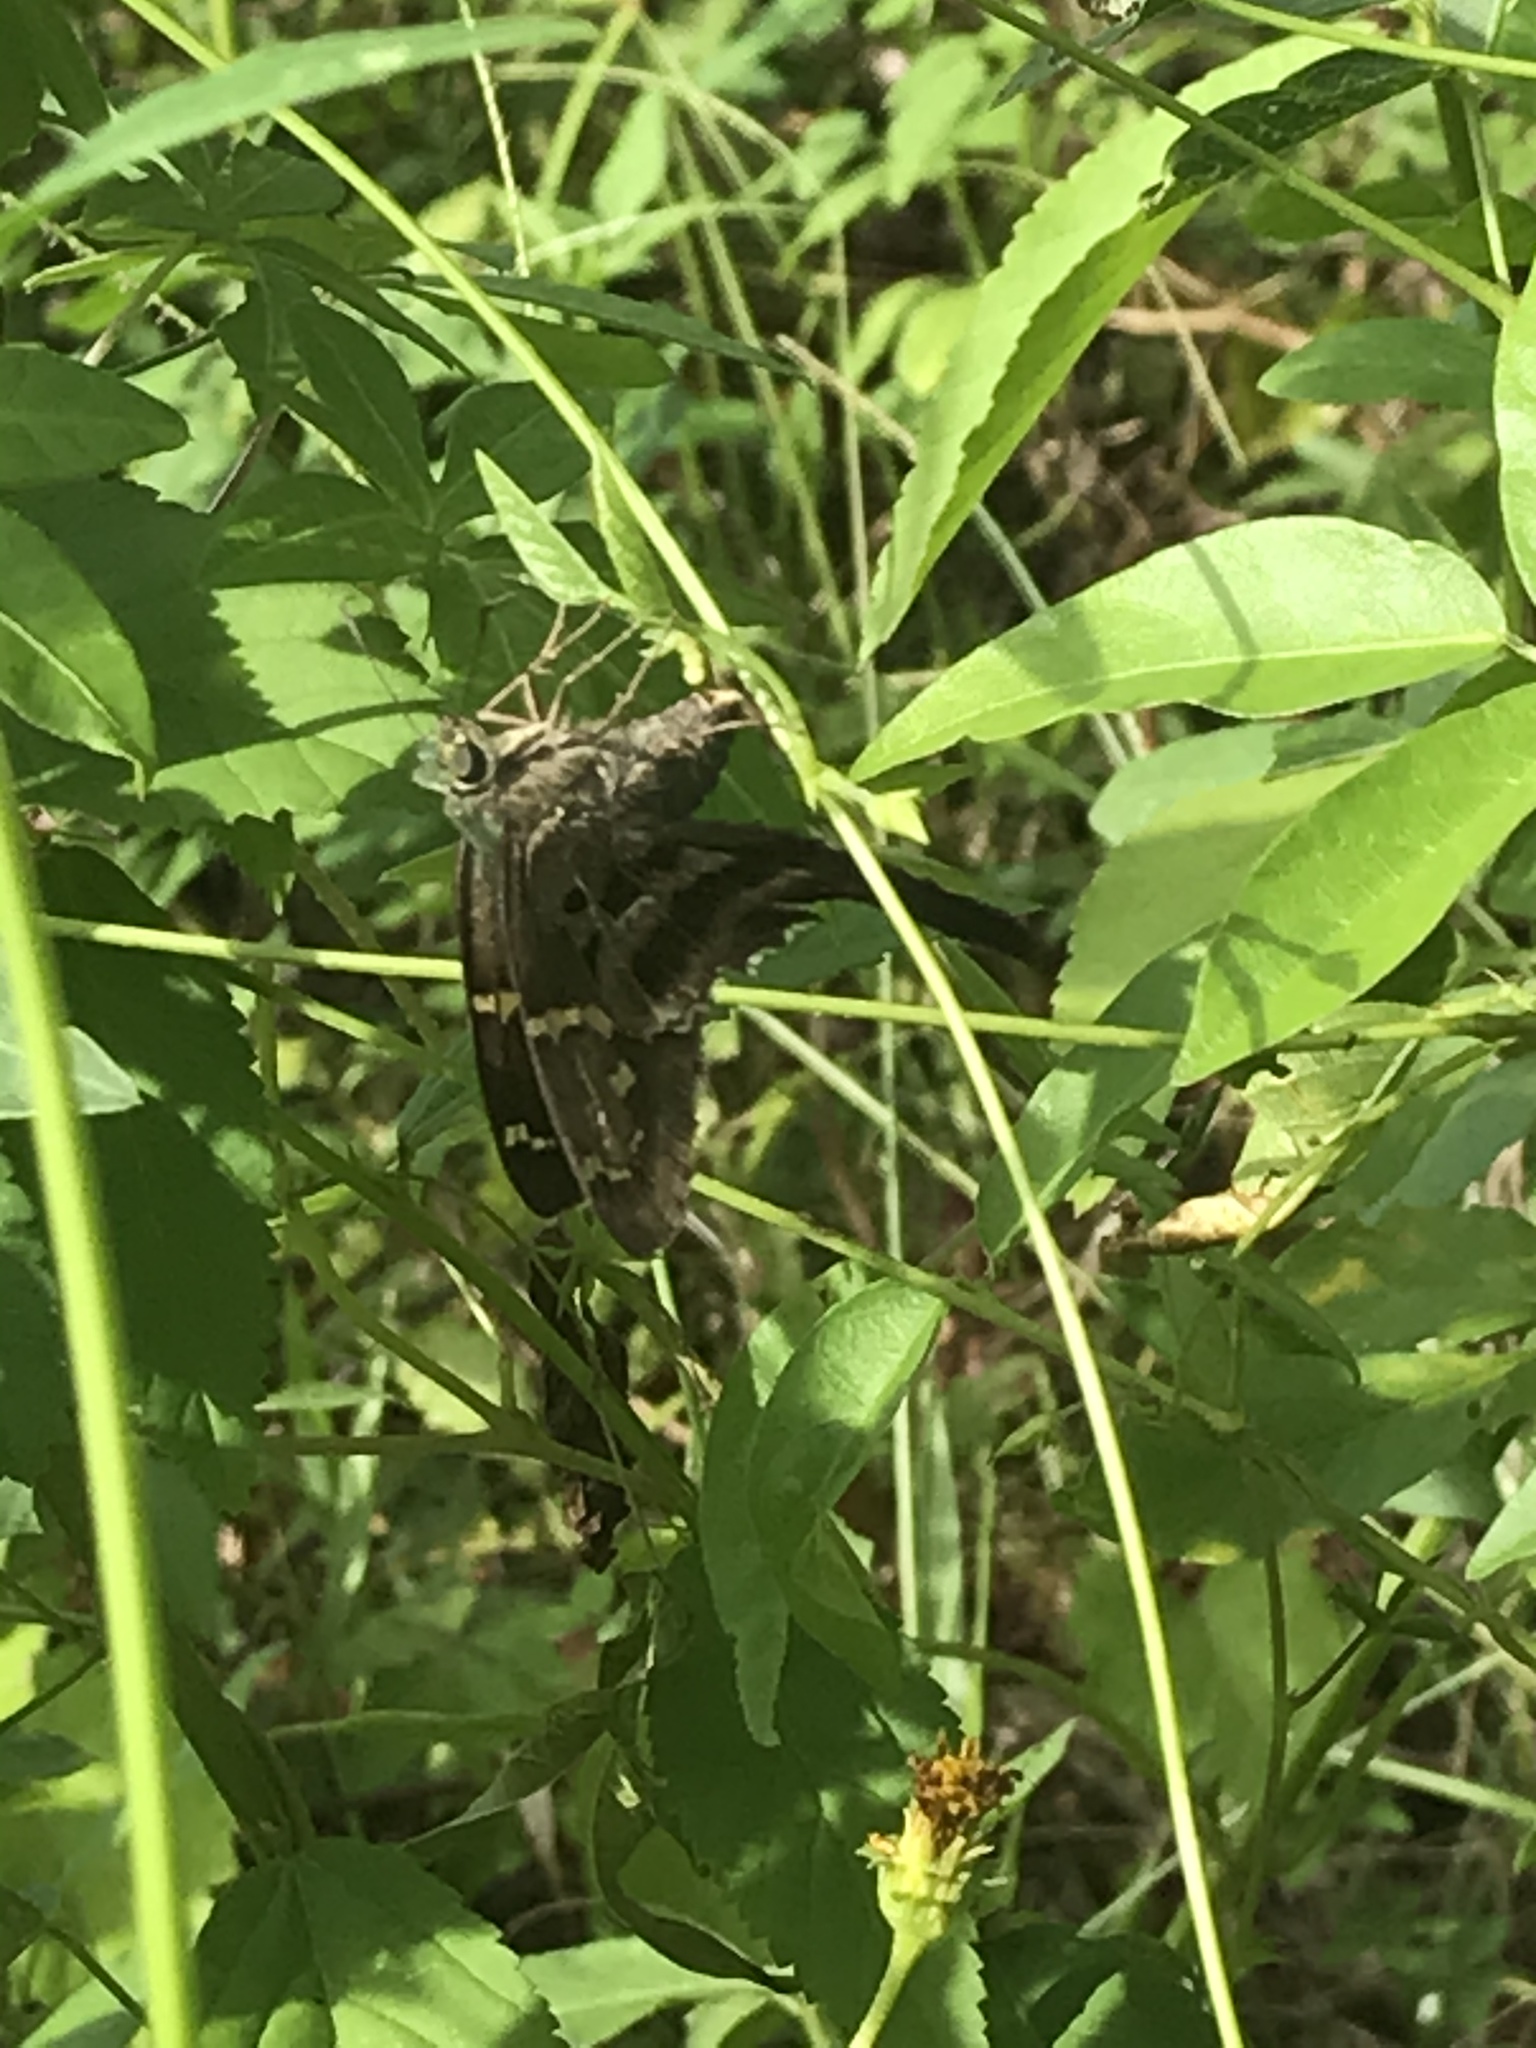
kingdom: Animalia
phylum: Arthropoda
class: Insecta
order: Lepidoptera
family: Hesperiidae
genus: Urbanus
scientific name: Urbanus proteus
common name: Long-tailed skipper
